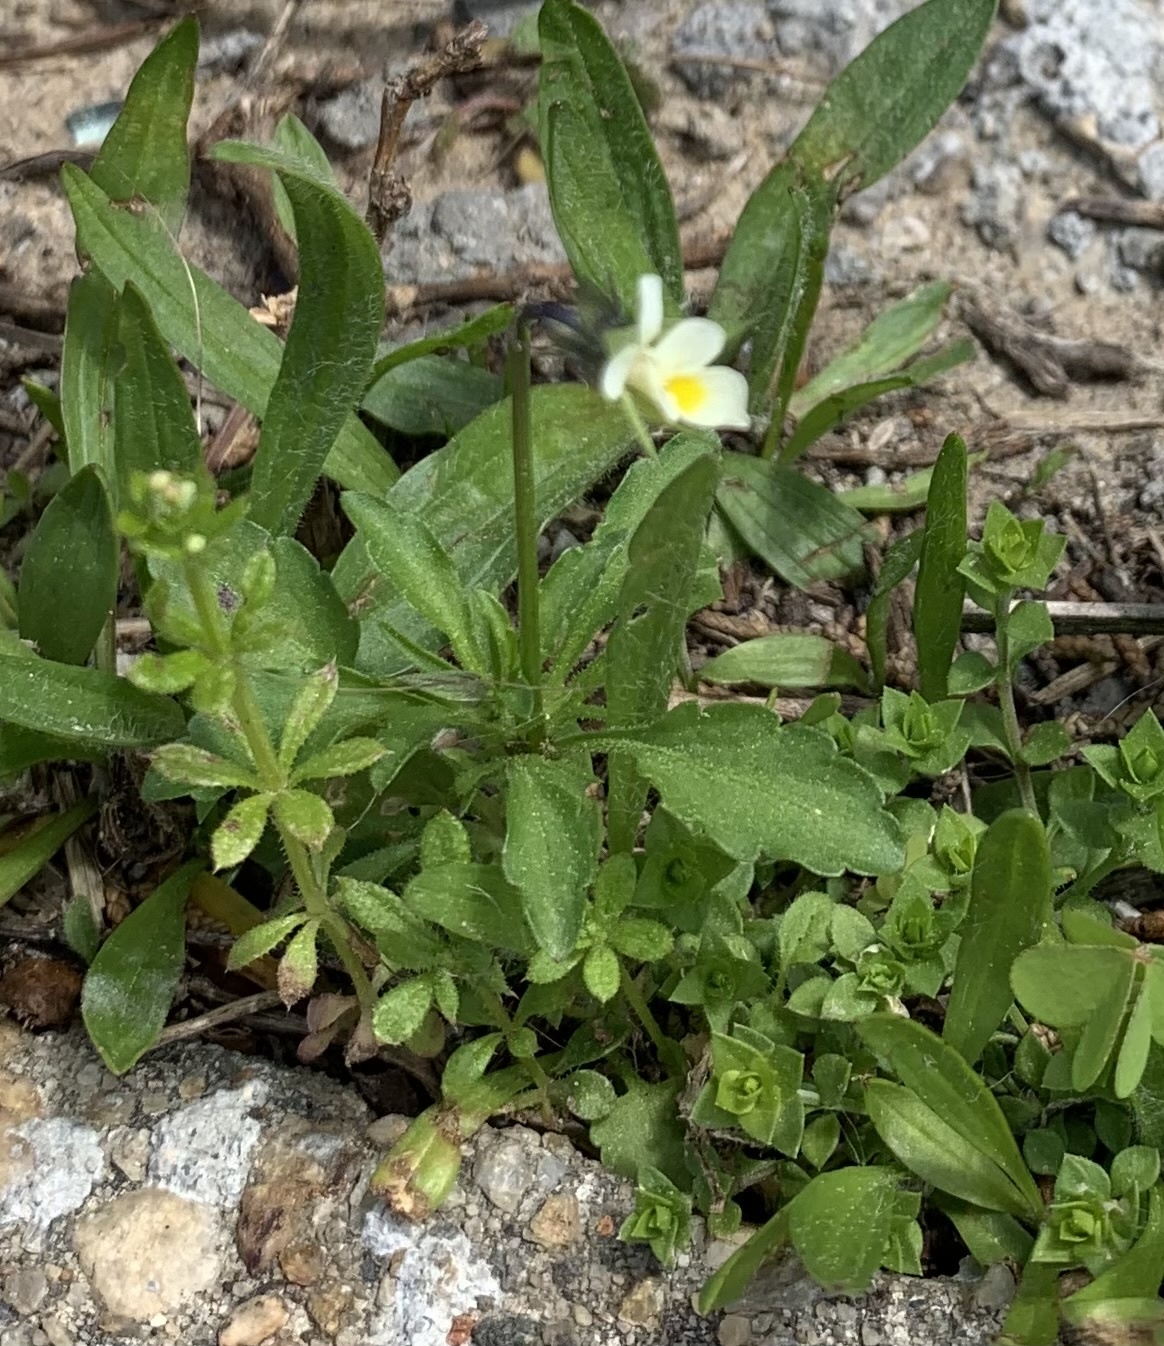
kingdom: Plantae
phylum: Tracheophyta
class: Magnoliopsida
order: Malpighiales
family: Violaceae
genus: Viola
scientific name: Viola arvensis
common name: Field pansy
